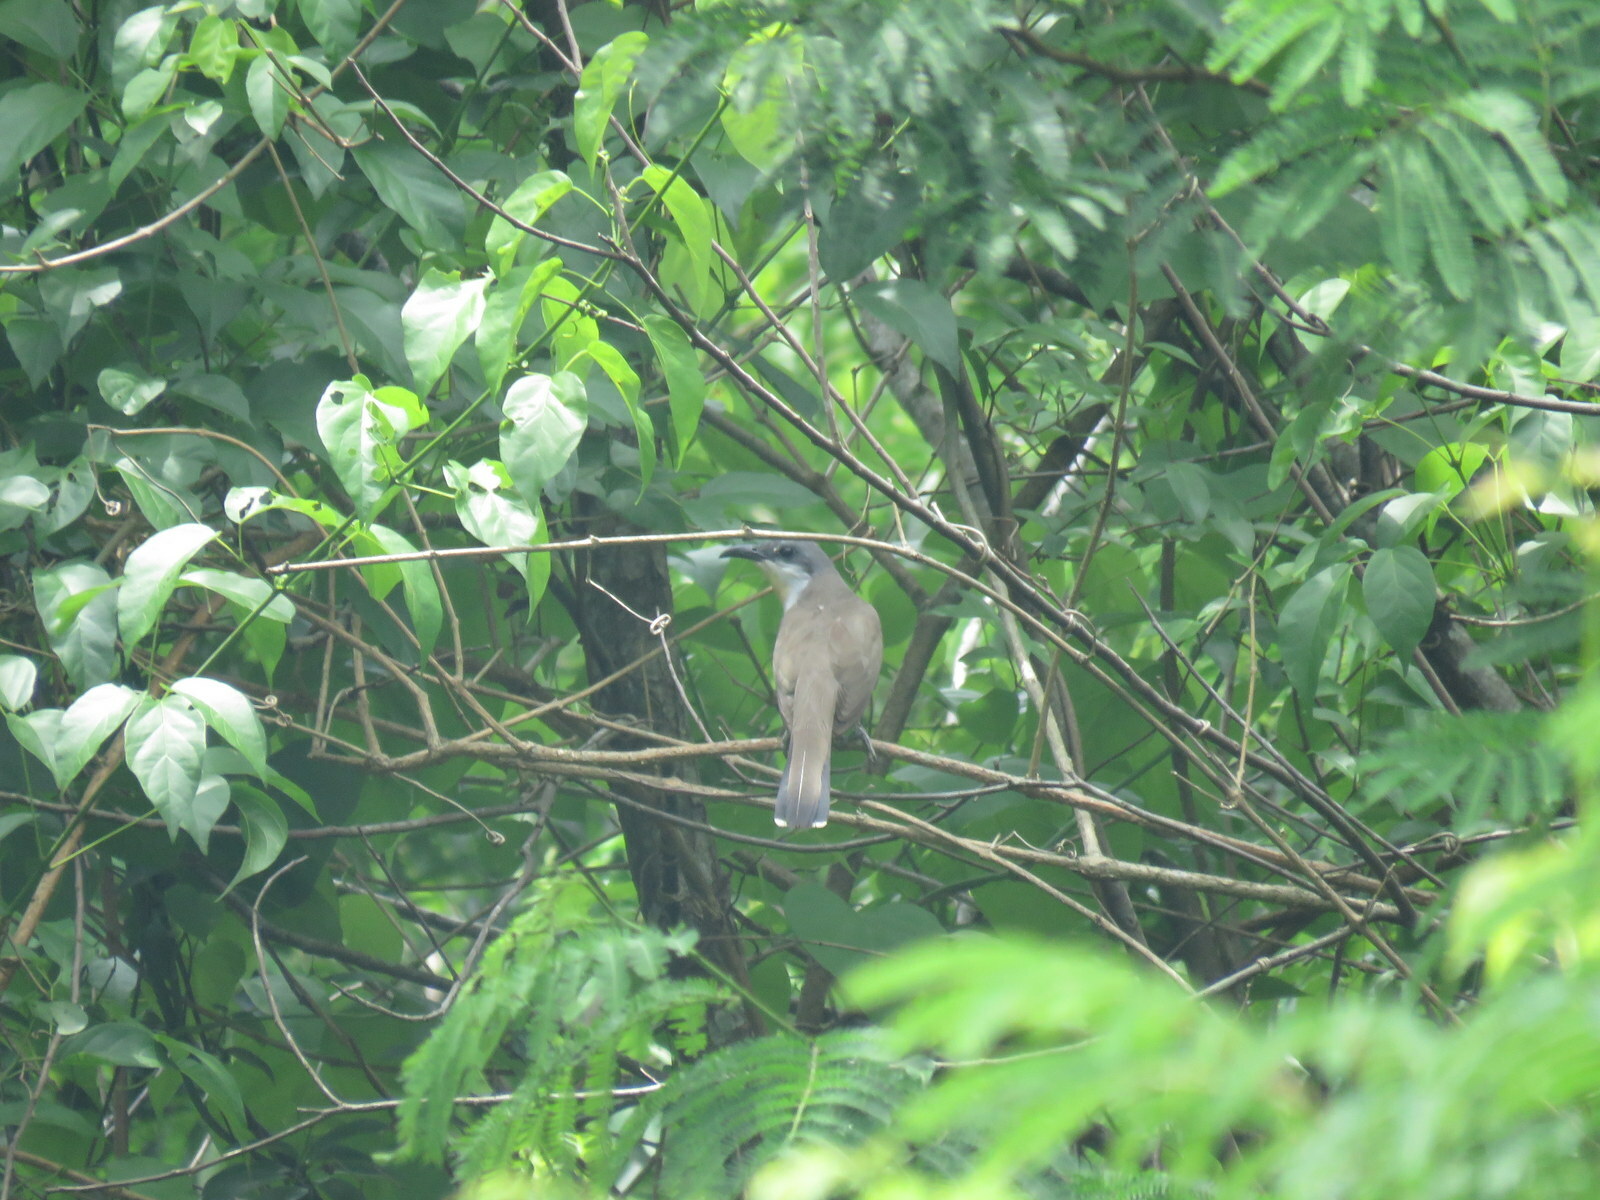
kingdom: Animalia
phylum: Chordata
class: Aves
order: Cuculiformes
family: Cuculidae
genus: Coccyzus
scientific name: Coccyzus melacoryphus
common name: Dark-billed cuckoo
